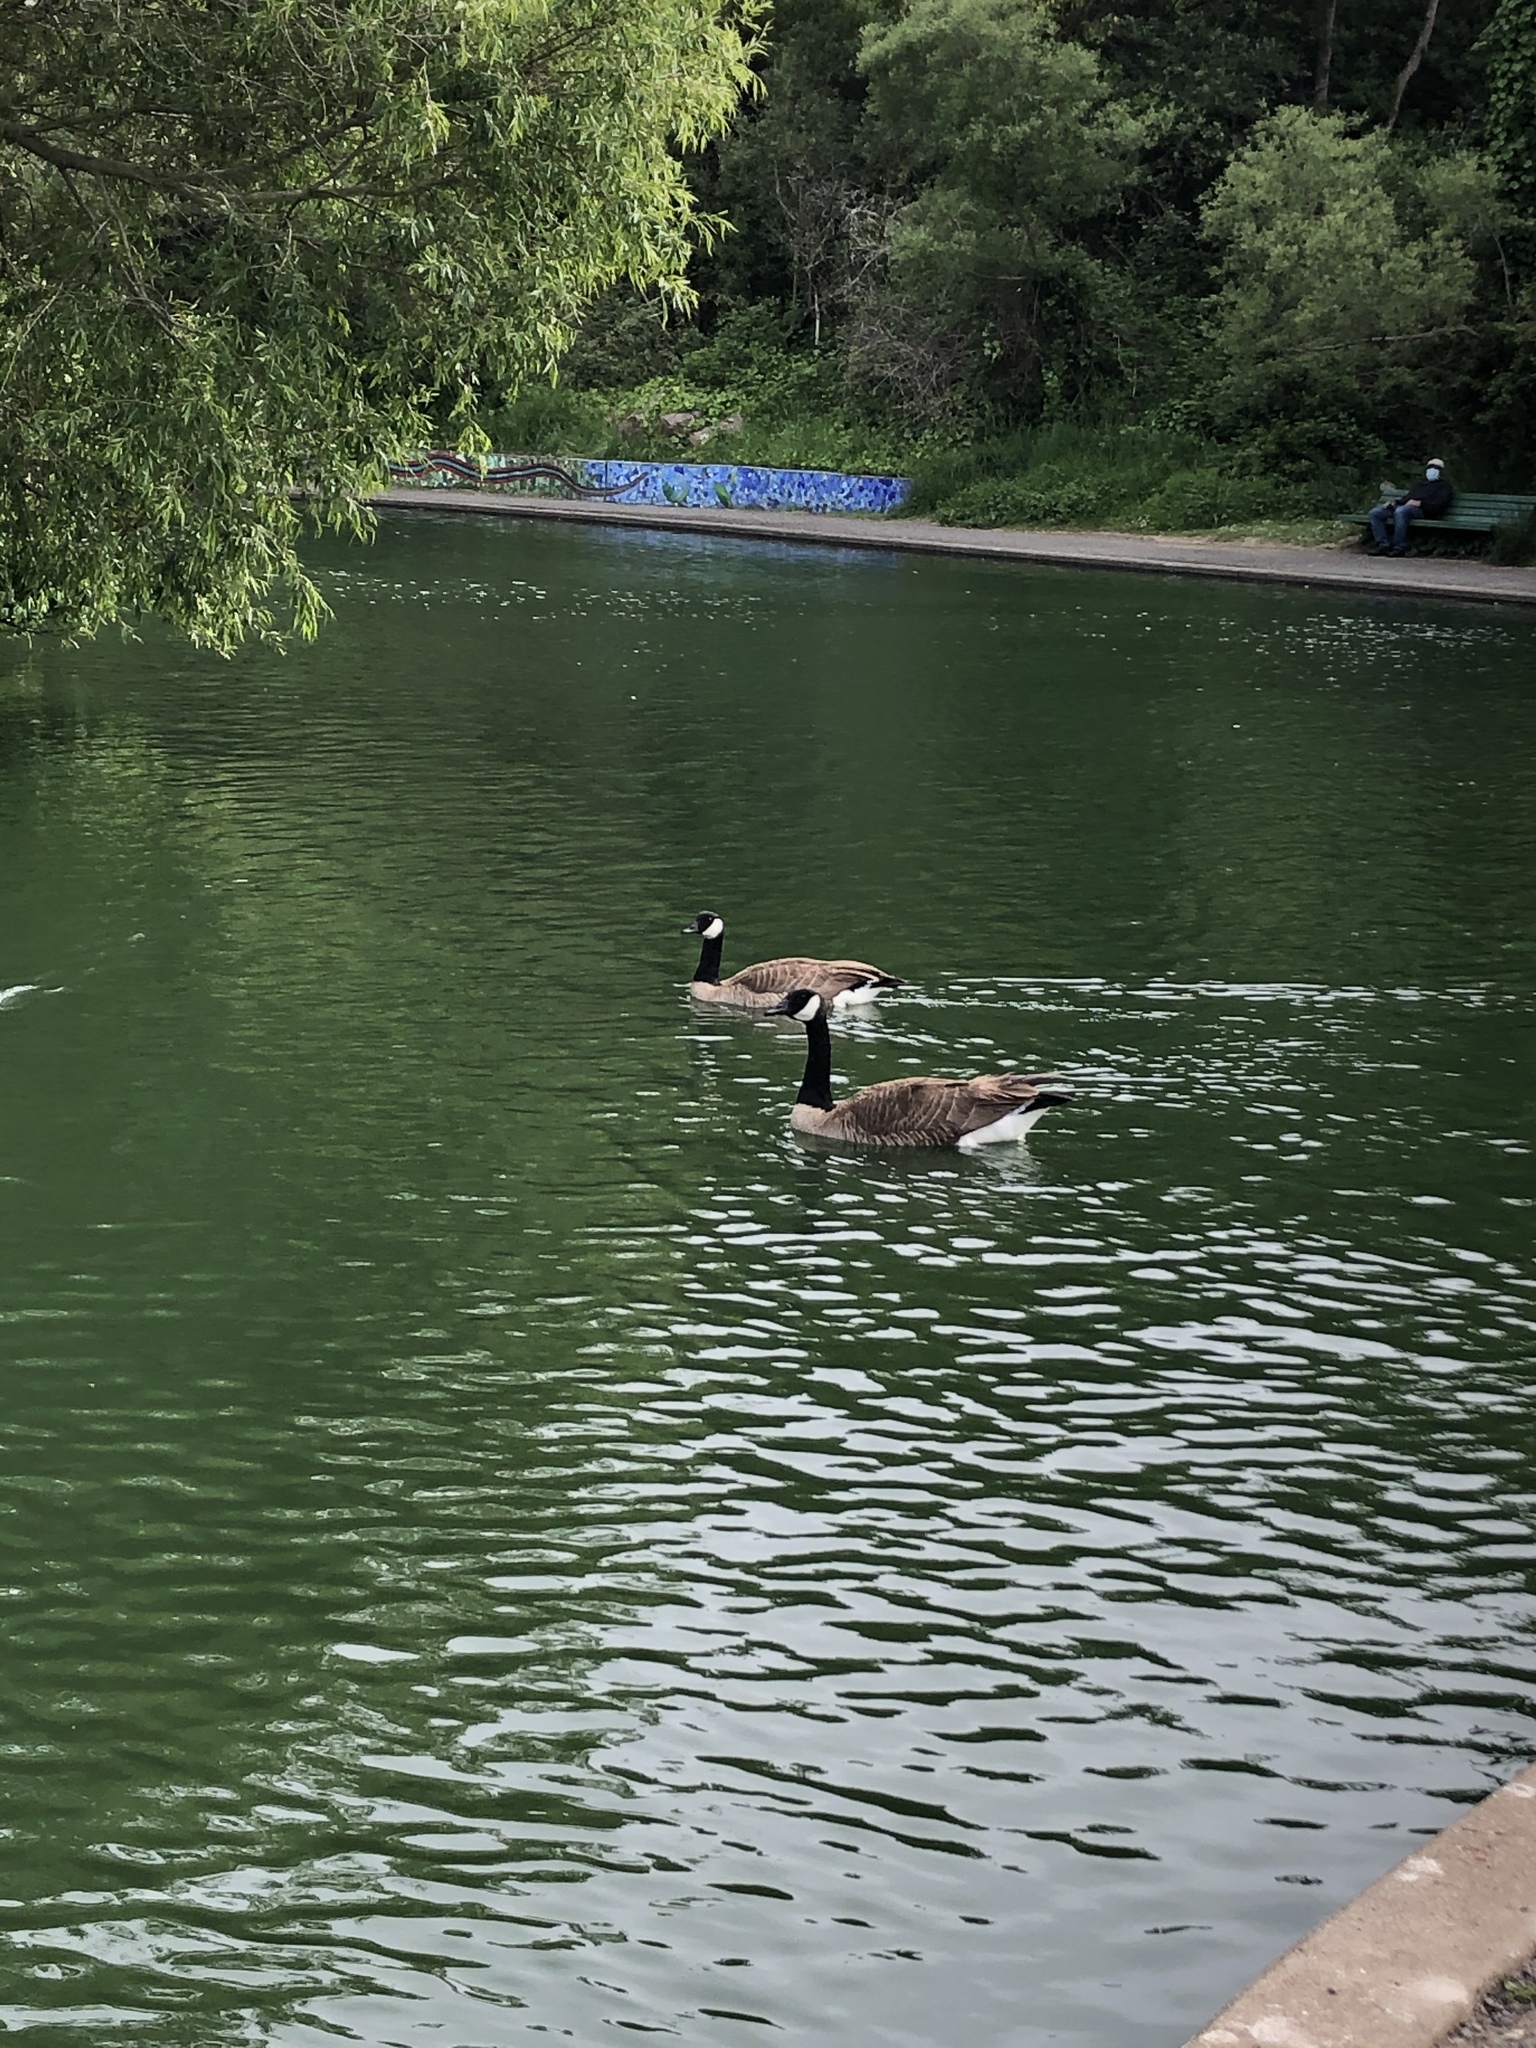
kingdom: Animalia
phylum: Chordata
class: Aves
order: Anseriformes
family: Anatidae
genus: Branta
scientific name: Branta canadensis
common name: Canada goose
